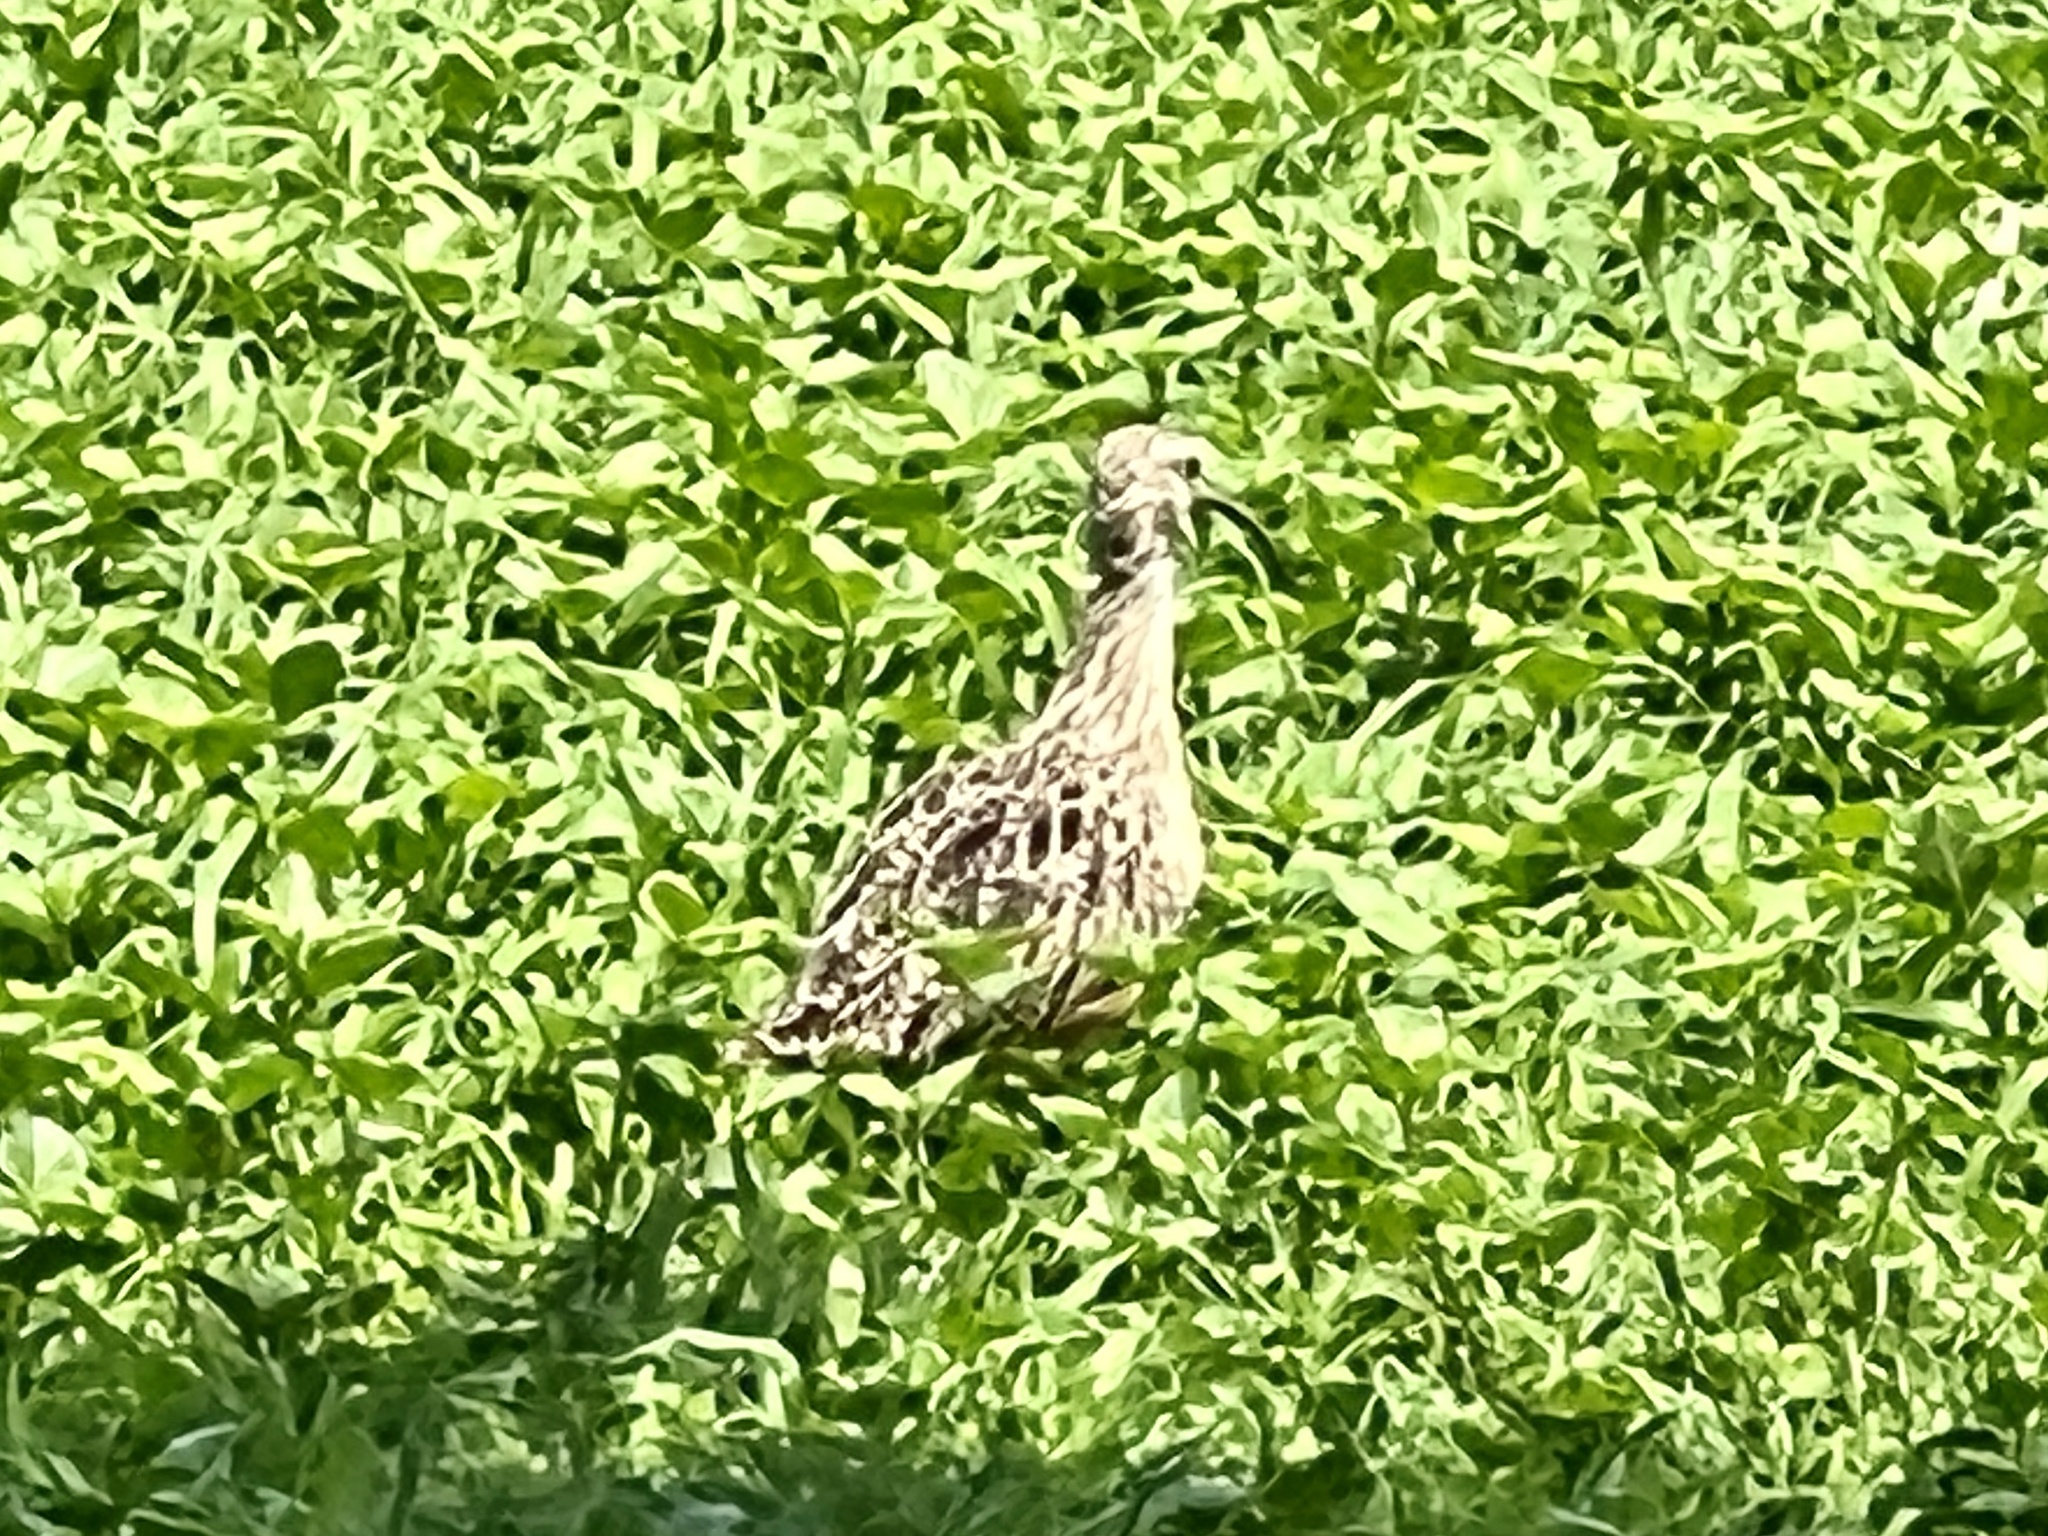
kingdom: Animalia
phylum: Chordata
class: Aves
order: Charadriiformes
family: Scolopacidae
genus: Numenius
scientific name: Numenius americanus
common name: Long-billed curlew
